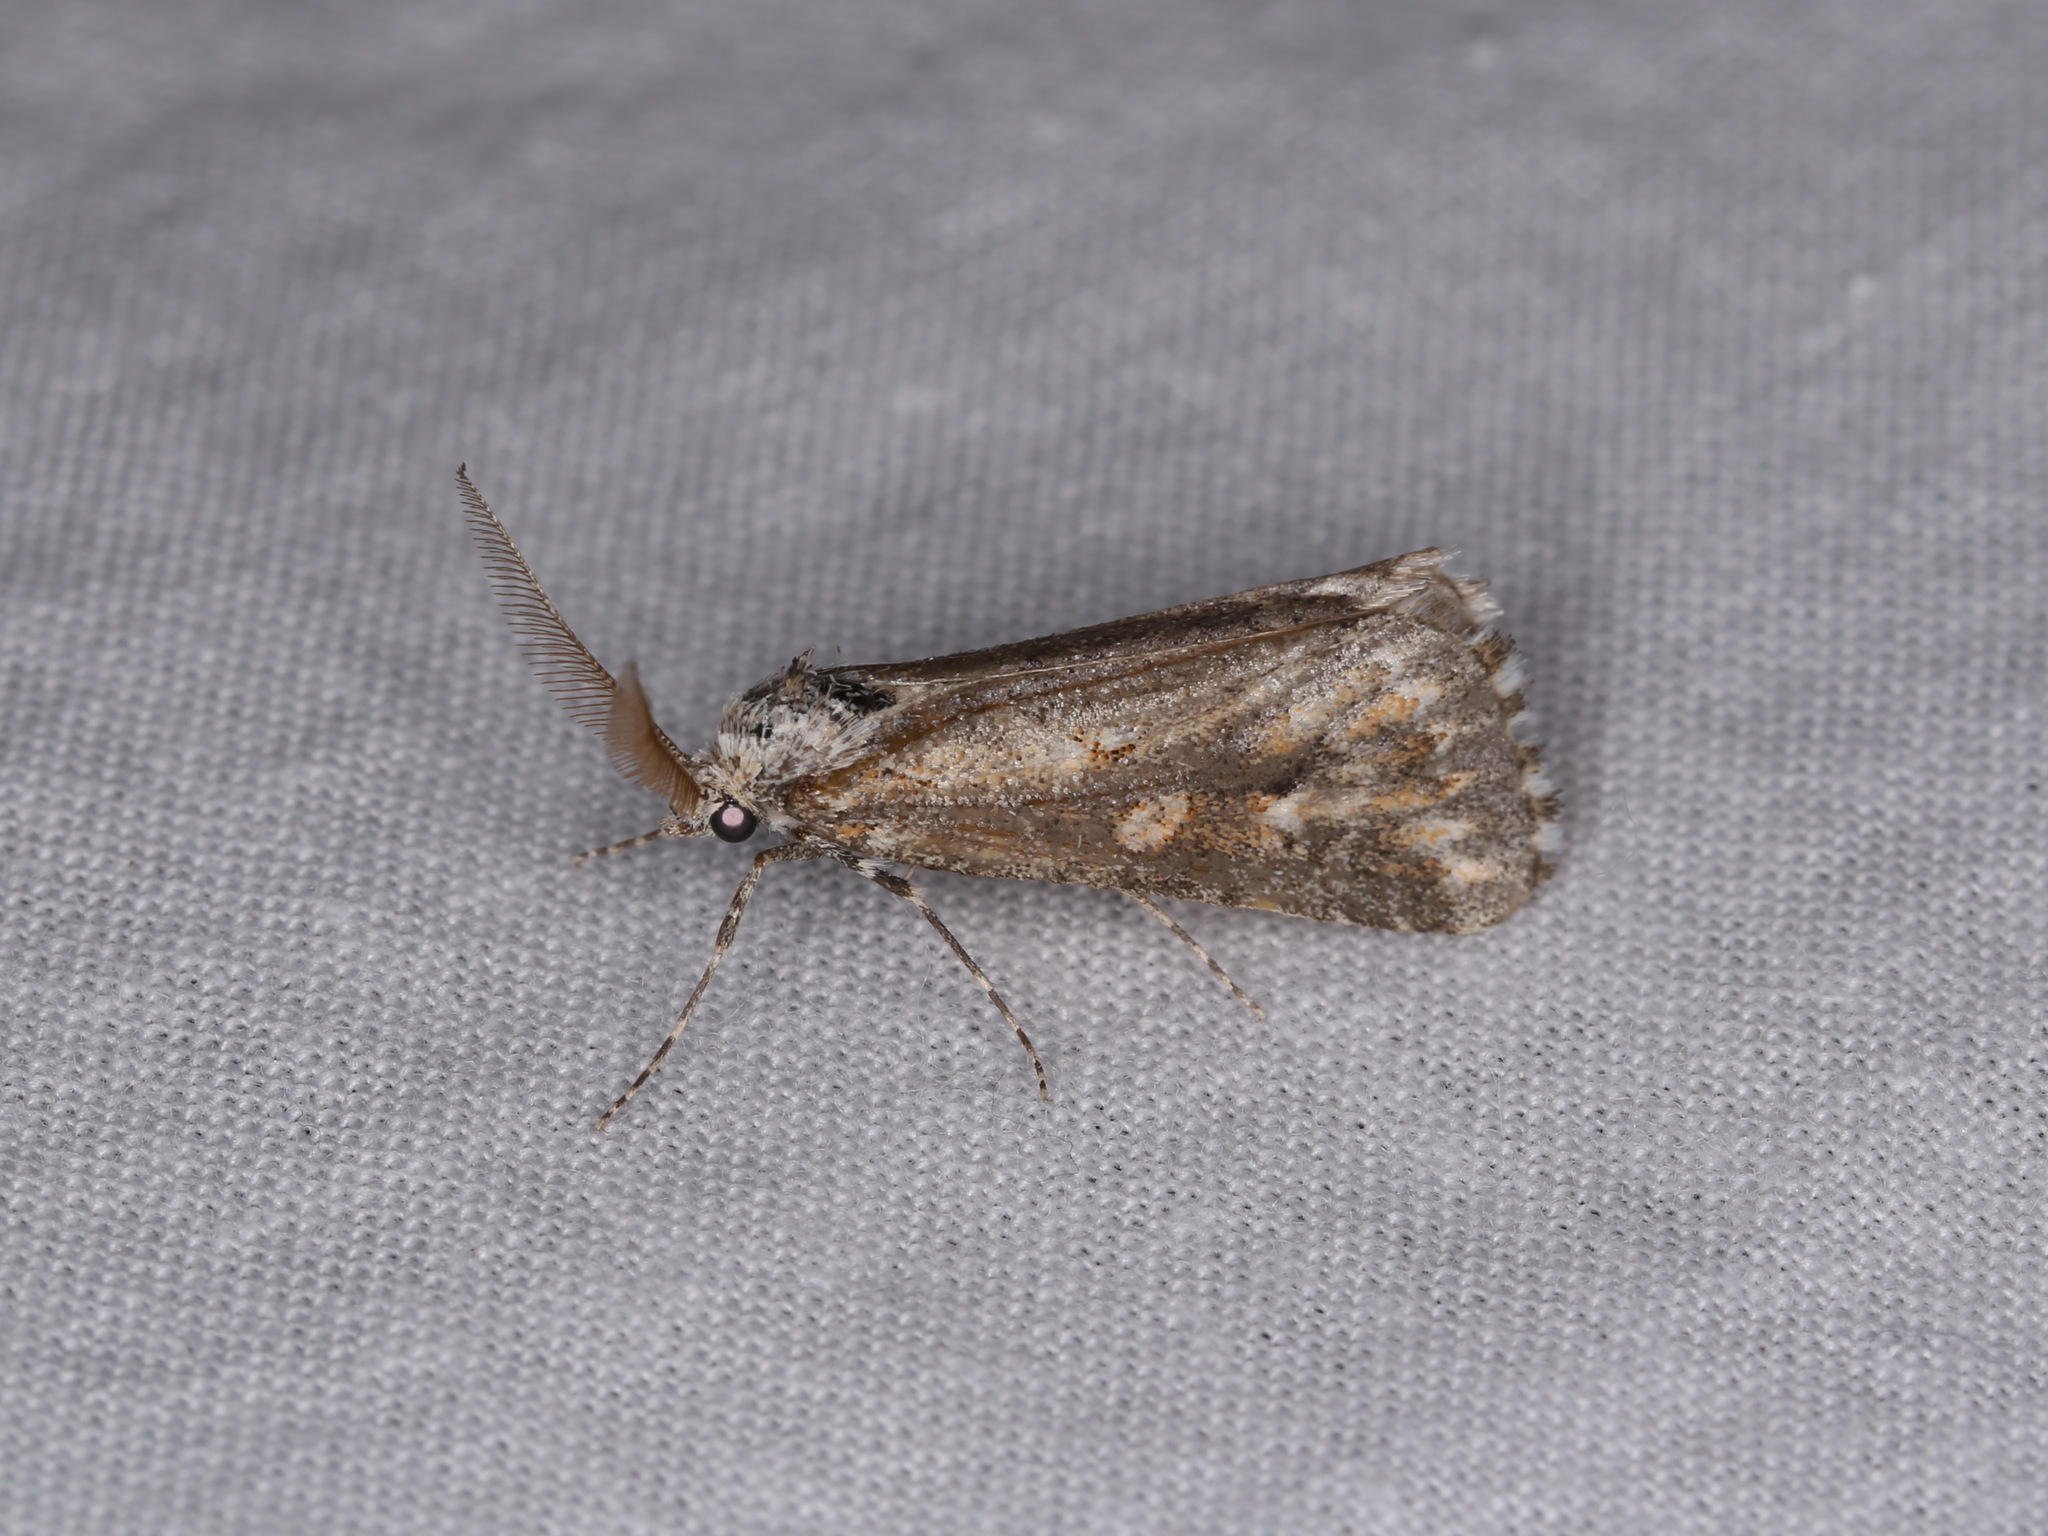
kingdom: Animalia
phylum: Arthropoda
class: Insecta
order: Lepidoptera
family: Noctuidae
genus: Eremochroa
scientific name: Eremochroa paradesma
